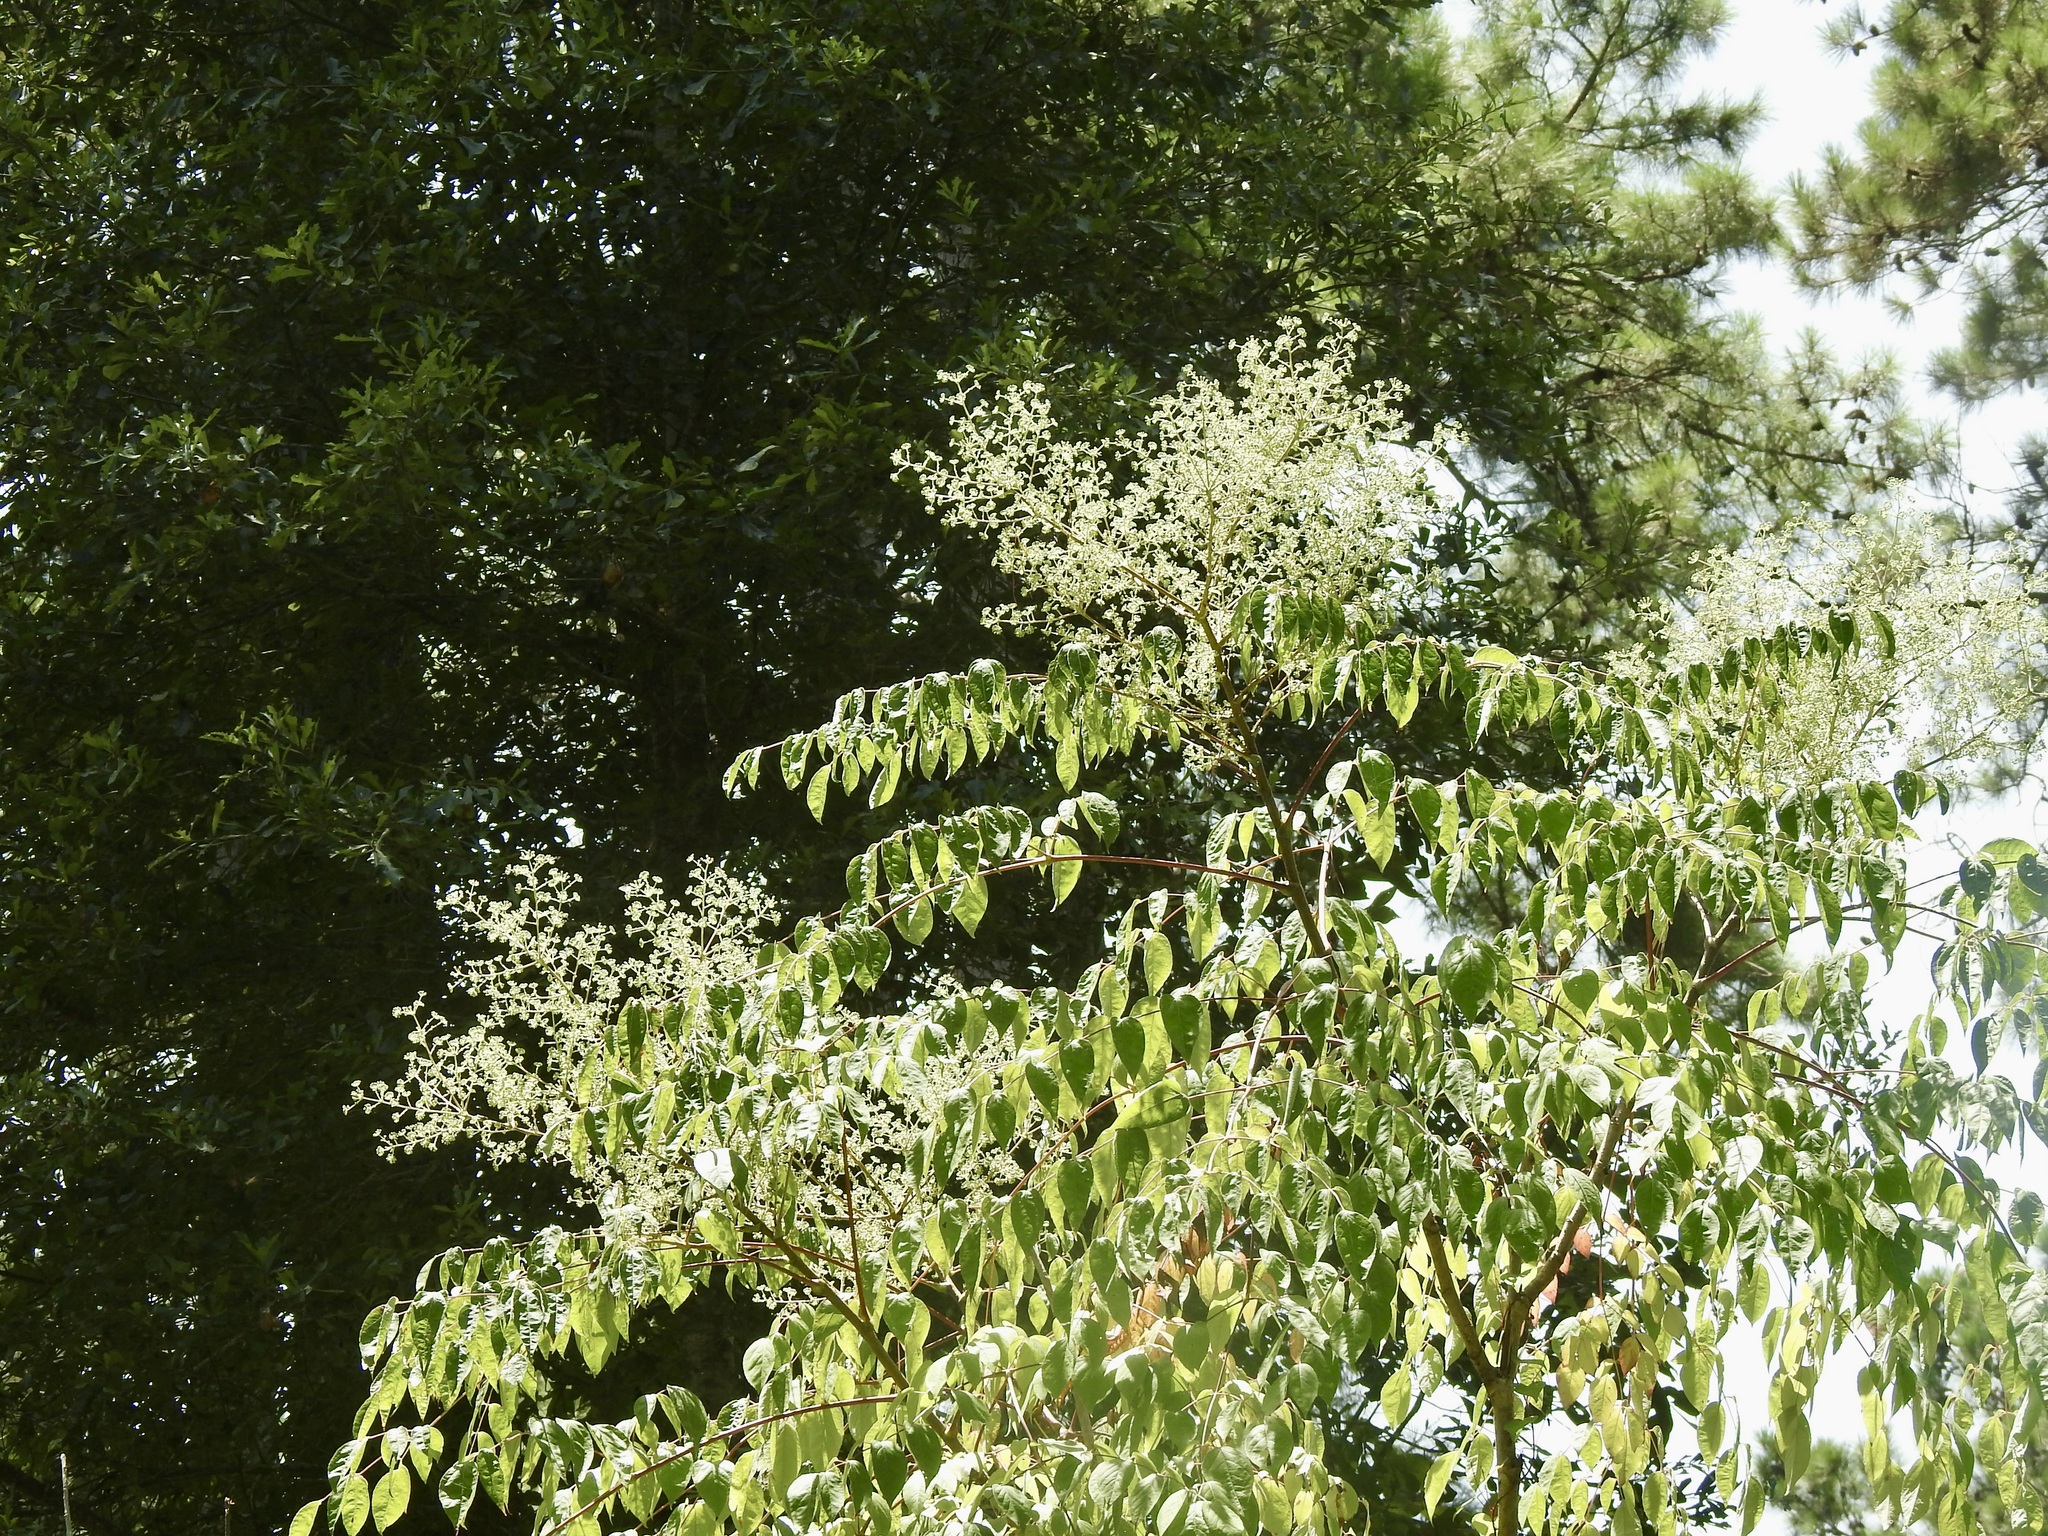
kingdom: Plantae
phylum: Tracheophyta
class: Magnoliopsida
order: Apiales
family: Araliaceae
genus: Aralia
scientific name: Aralia spinosa
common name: Hercules'-club
